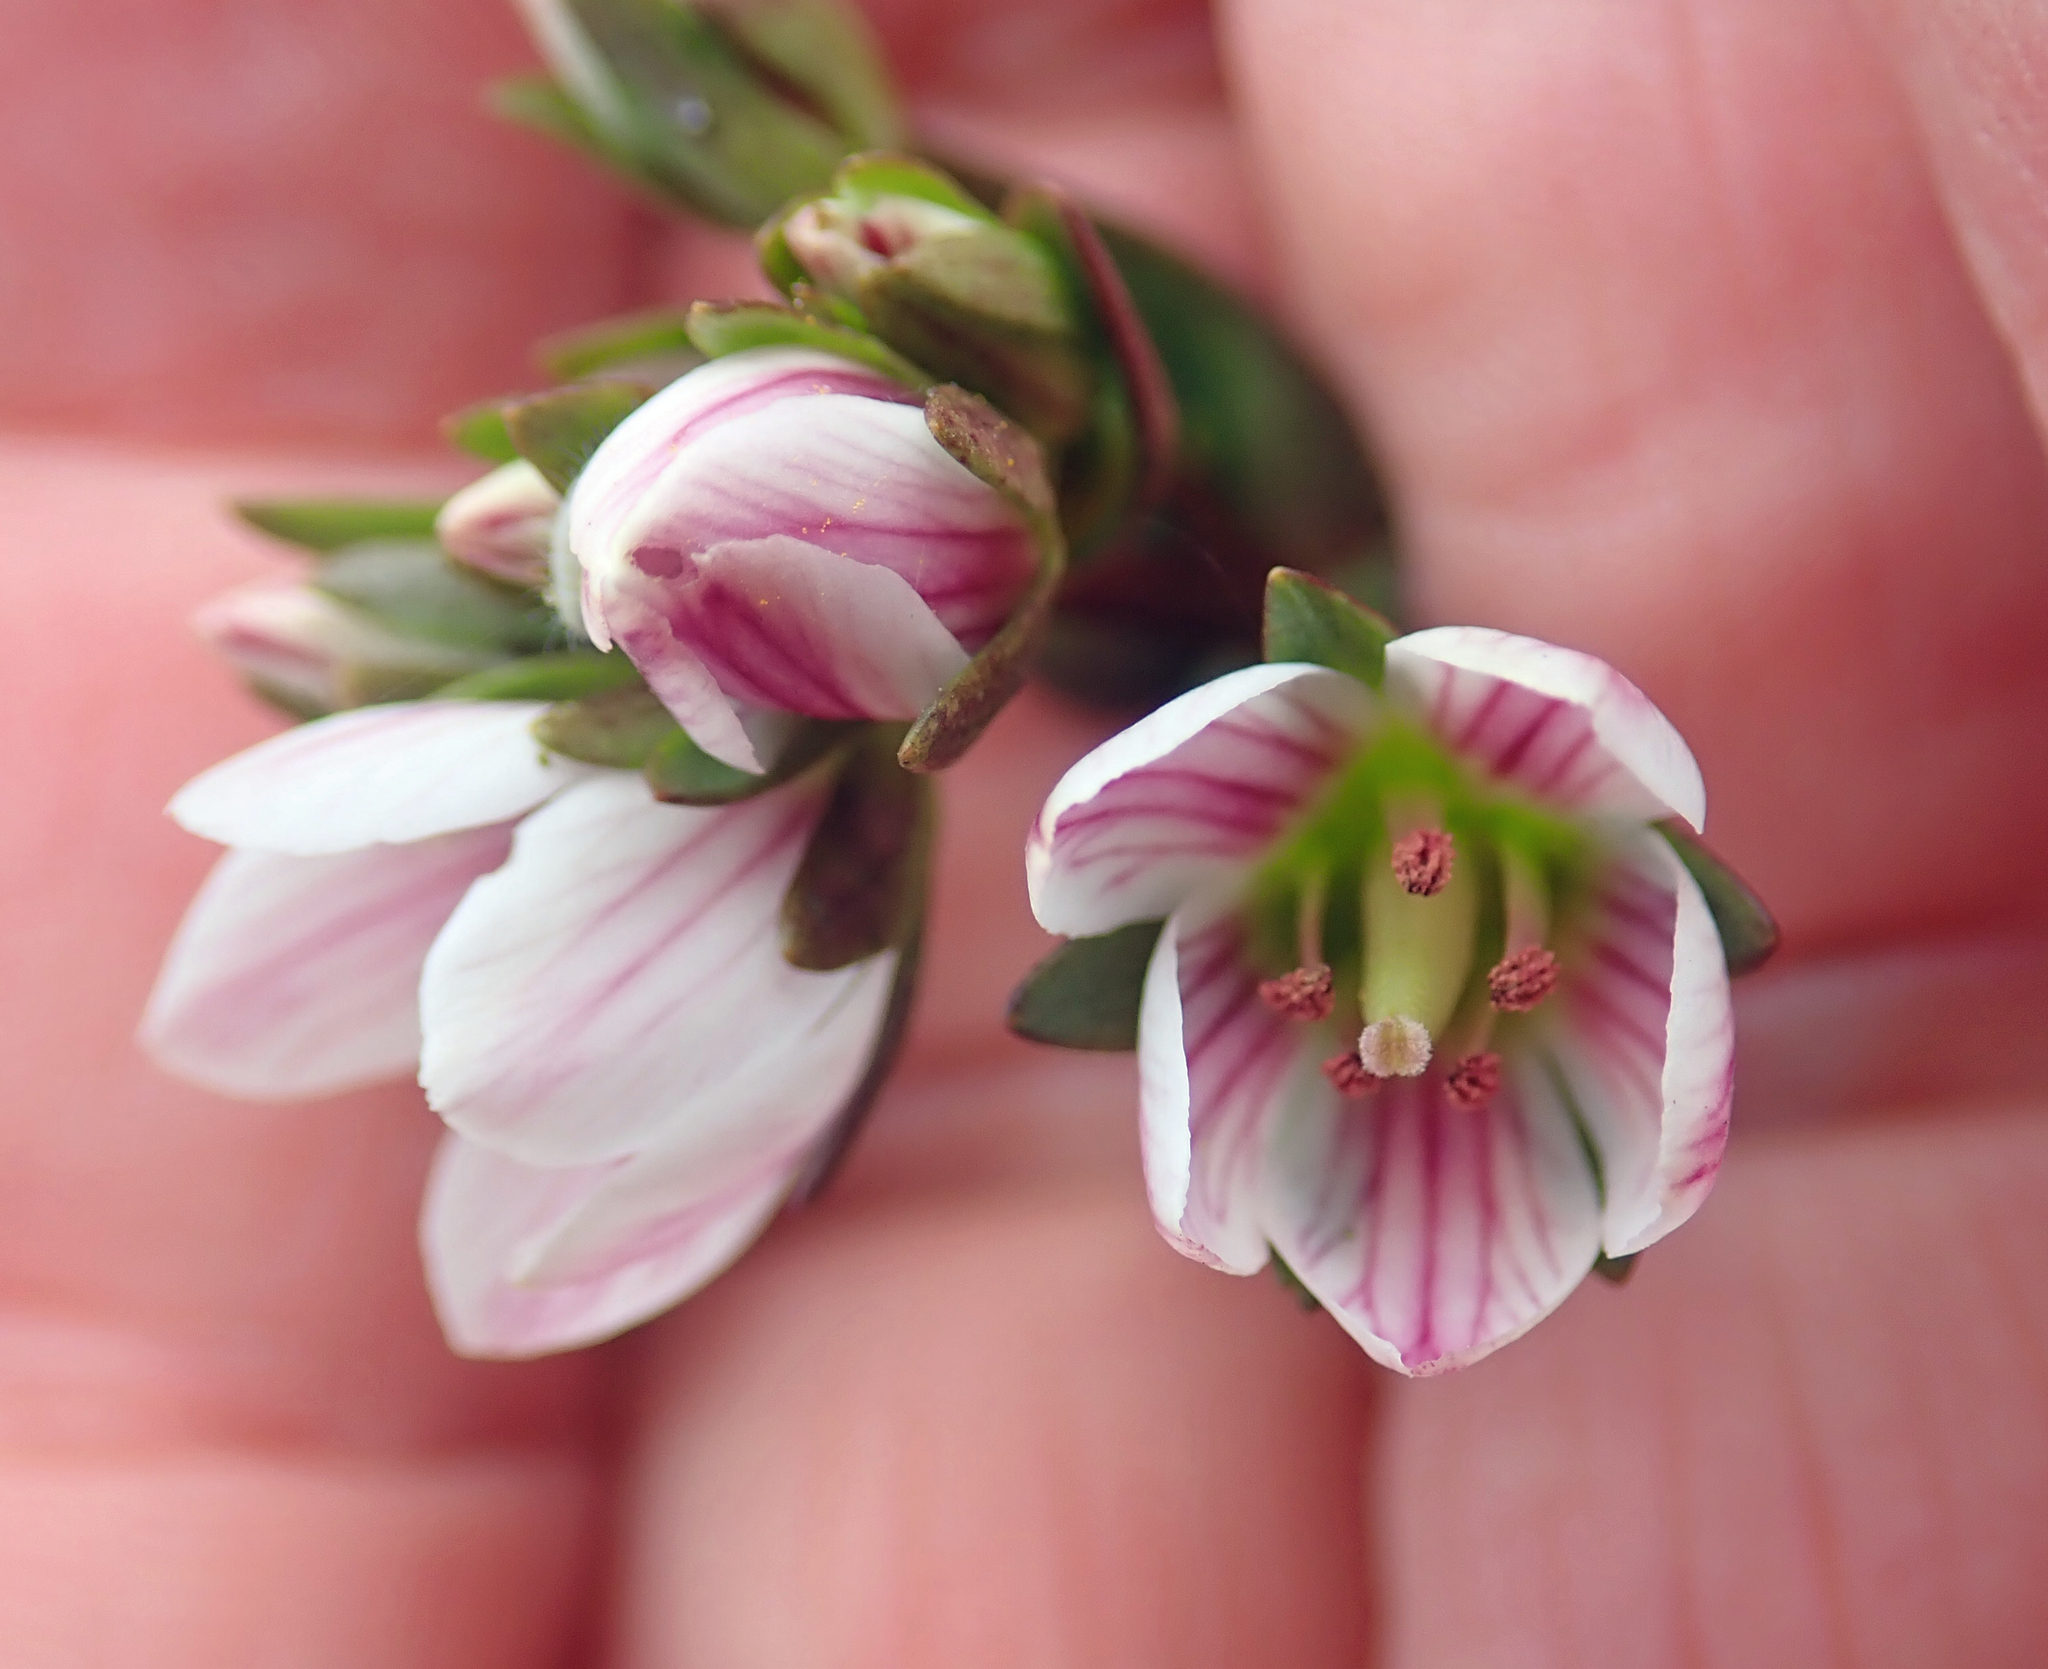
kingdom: Plantae
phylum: Tracheophyta
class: Magnoliopsida
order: Gentianales
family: Gentianaceae
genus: Gentianella
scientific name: Gentianella chathamica
